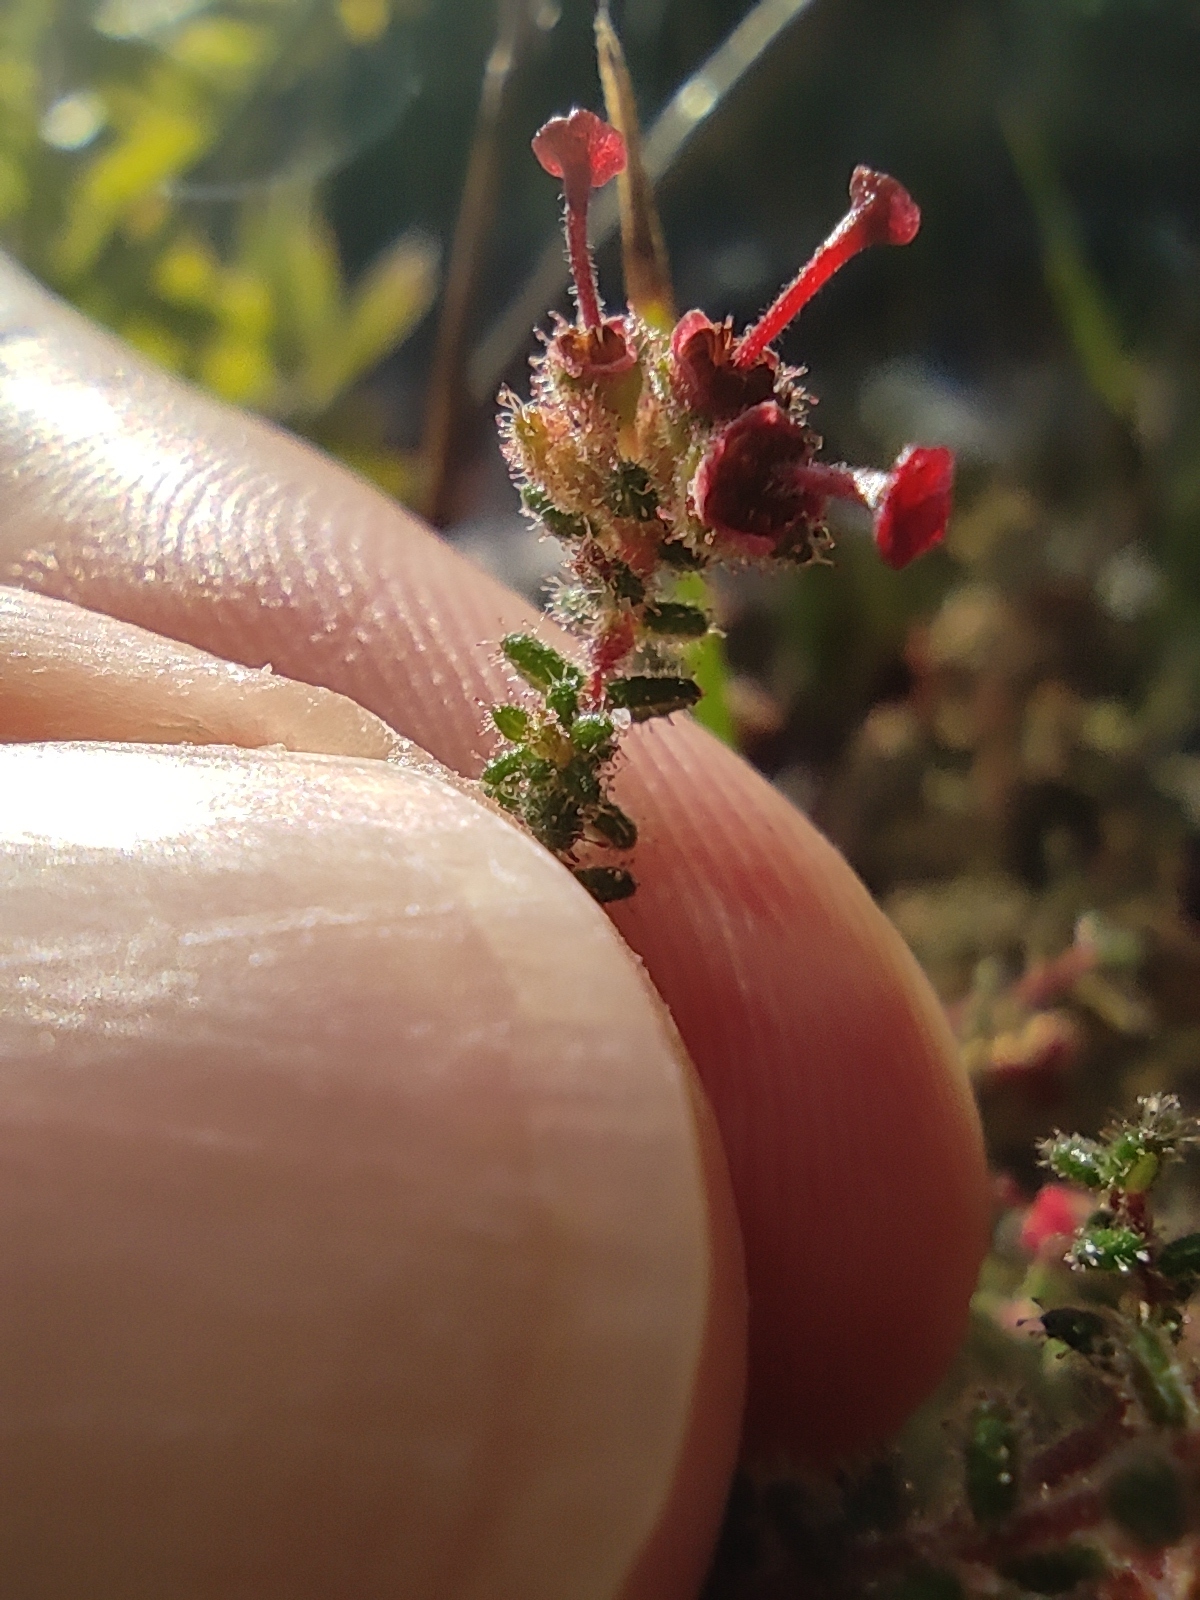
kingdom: Plantae
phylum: Tracheophyta
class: Magnoliopsida
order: Ericales
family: Ericaceae
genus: Erica
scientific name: Erica exleeana
